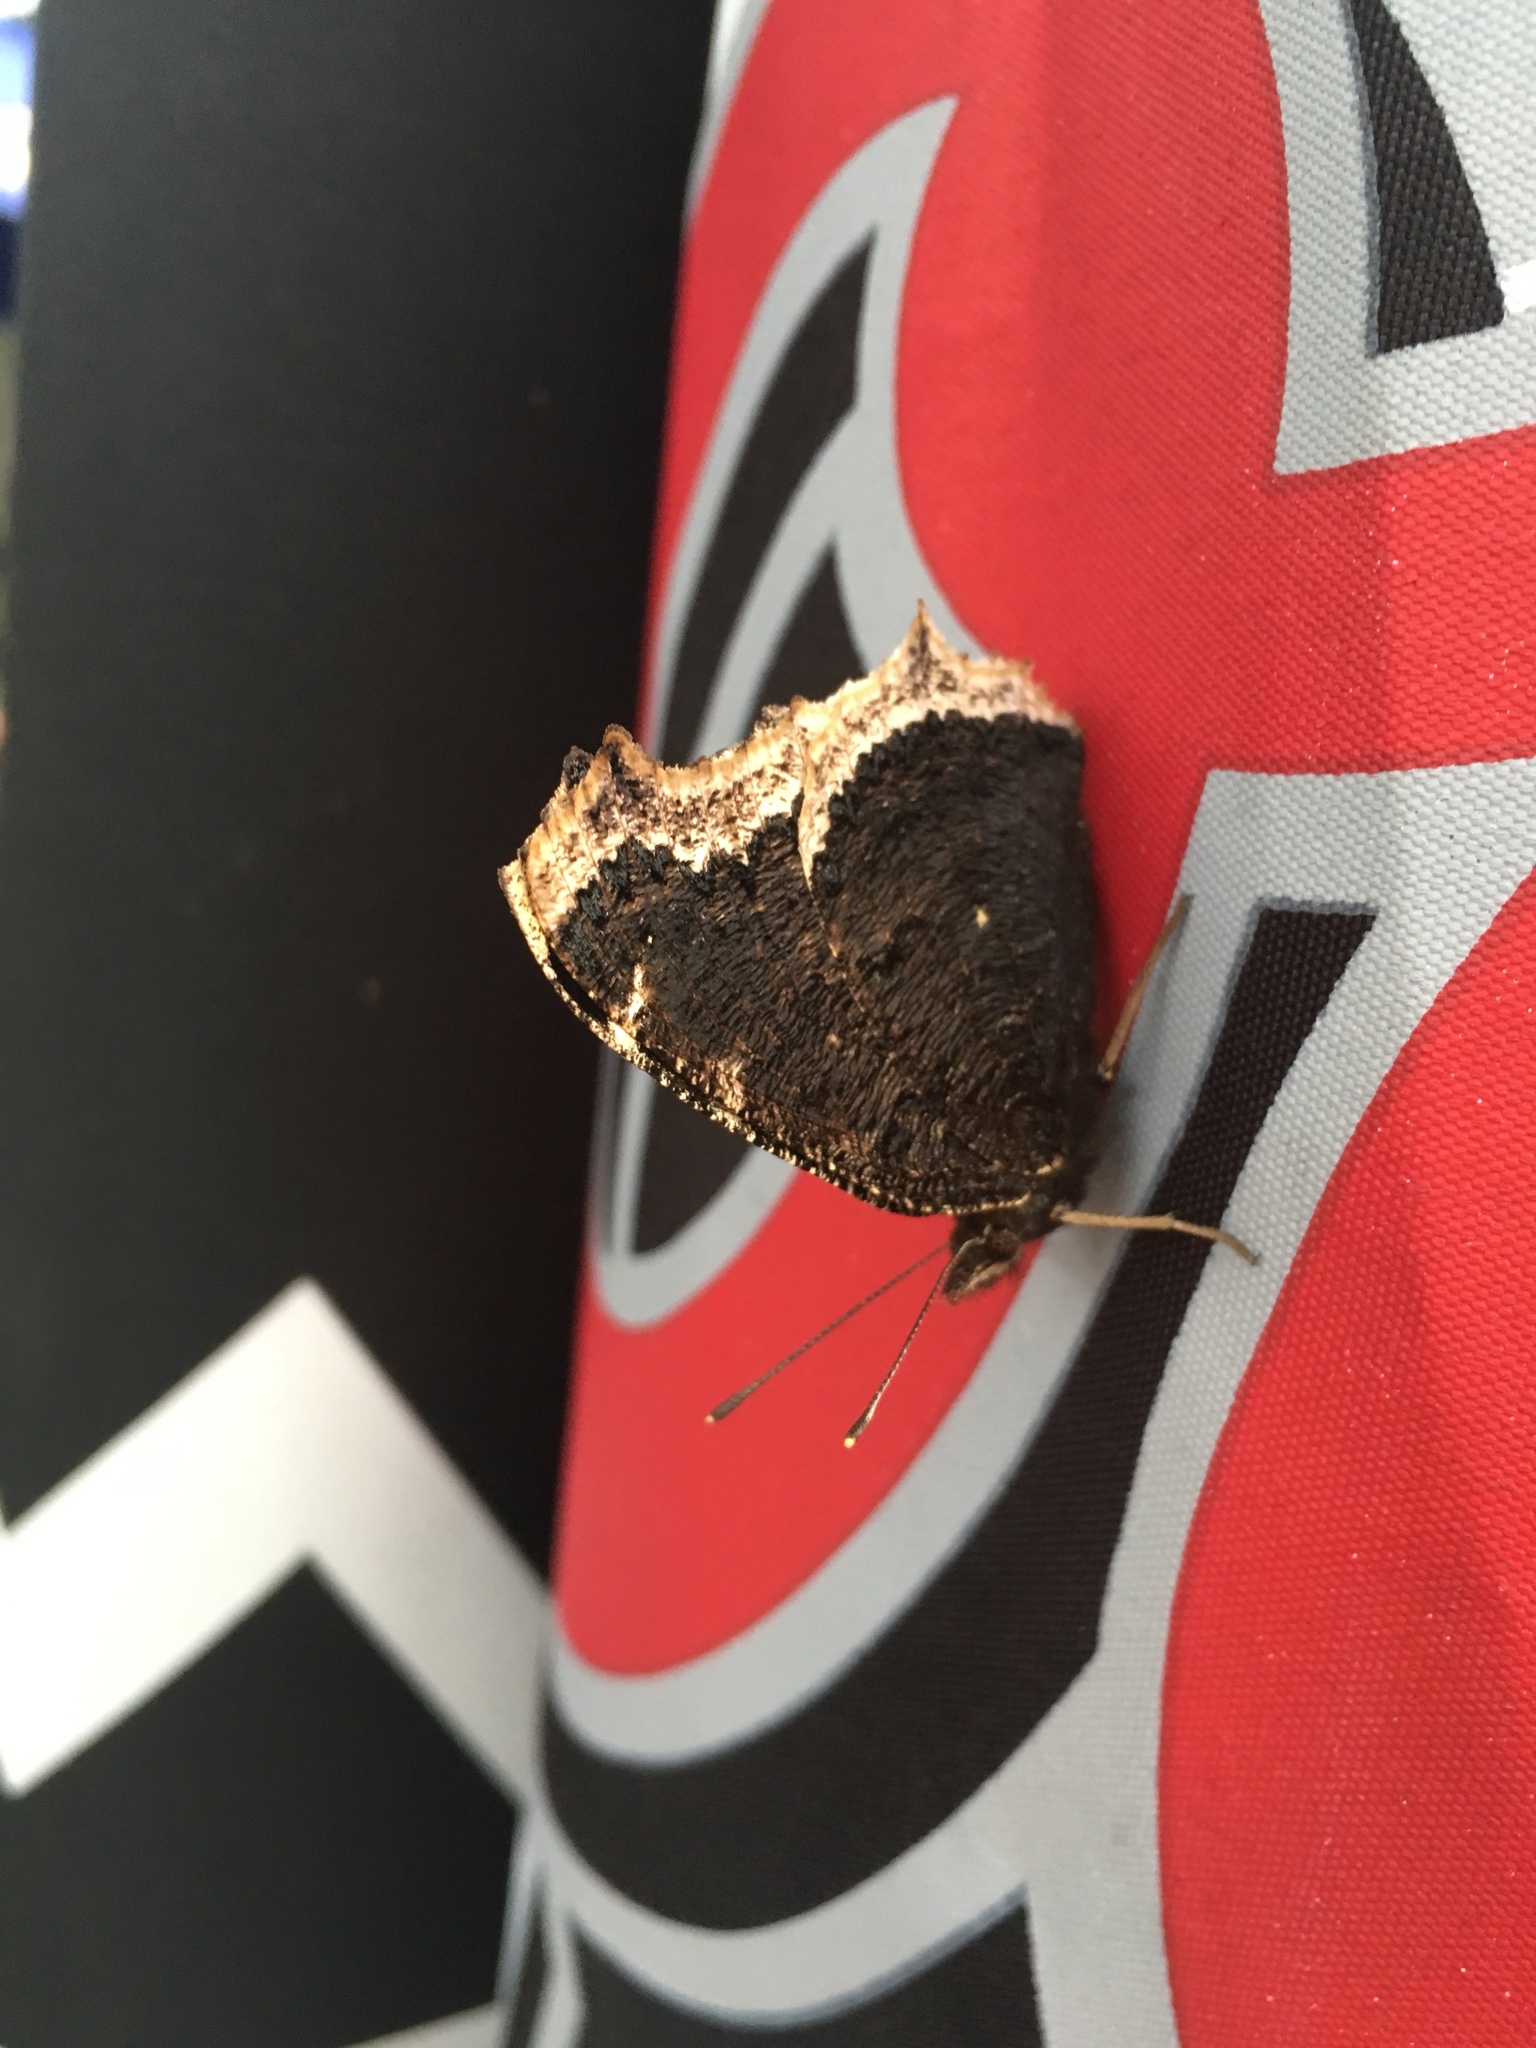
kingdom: Animalia
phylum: Arthropoda
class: Insecta
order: Lepidoptera
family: Nymphalidae
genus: Nymphalis
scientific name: Nymphalis antiopa
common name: Camberwell beauty
